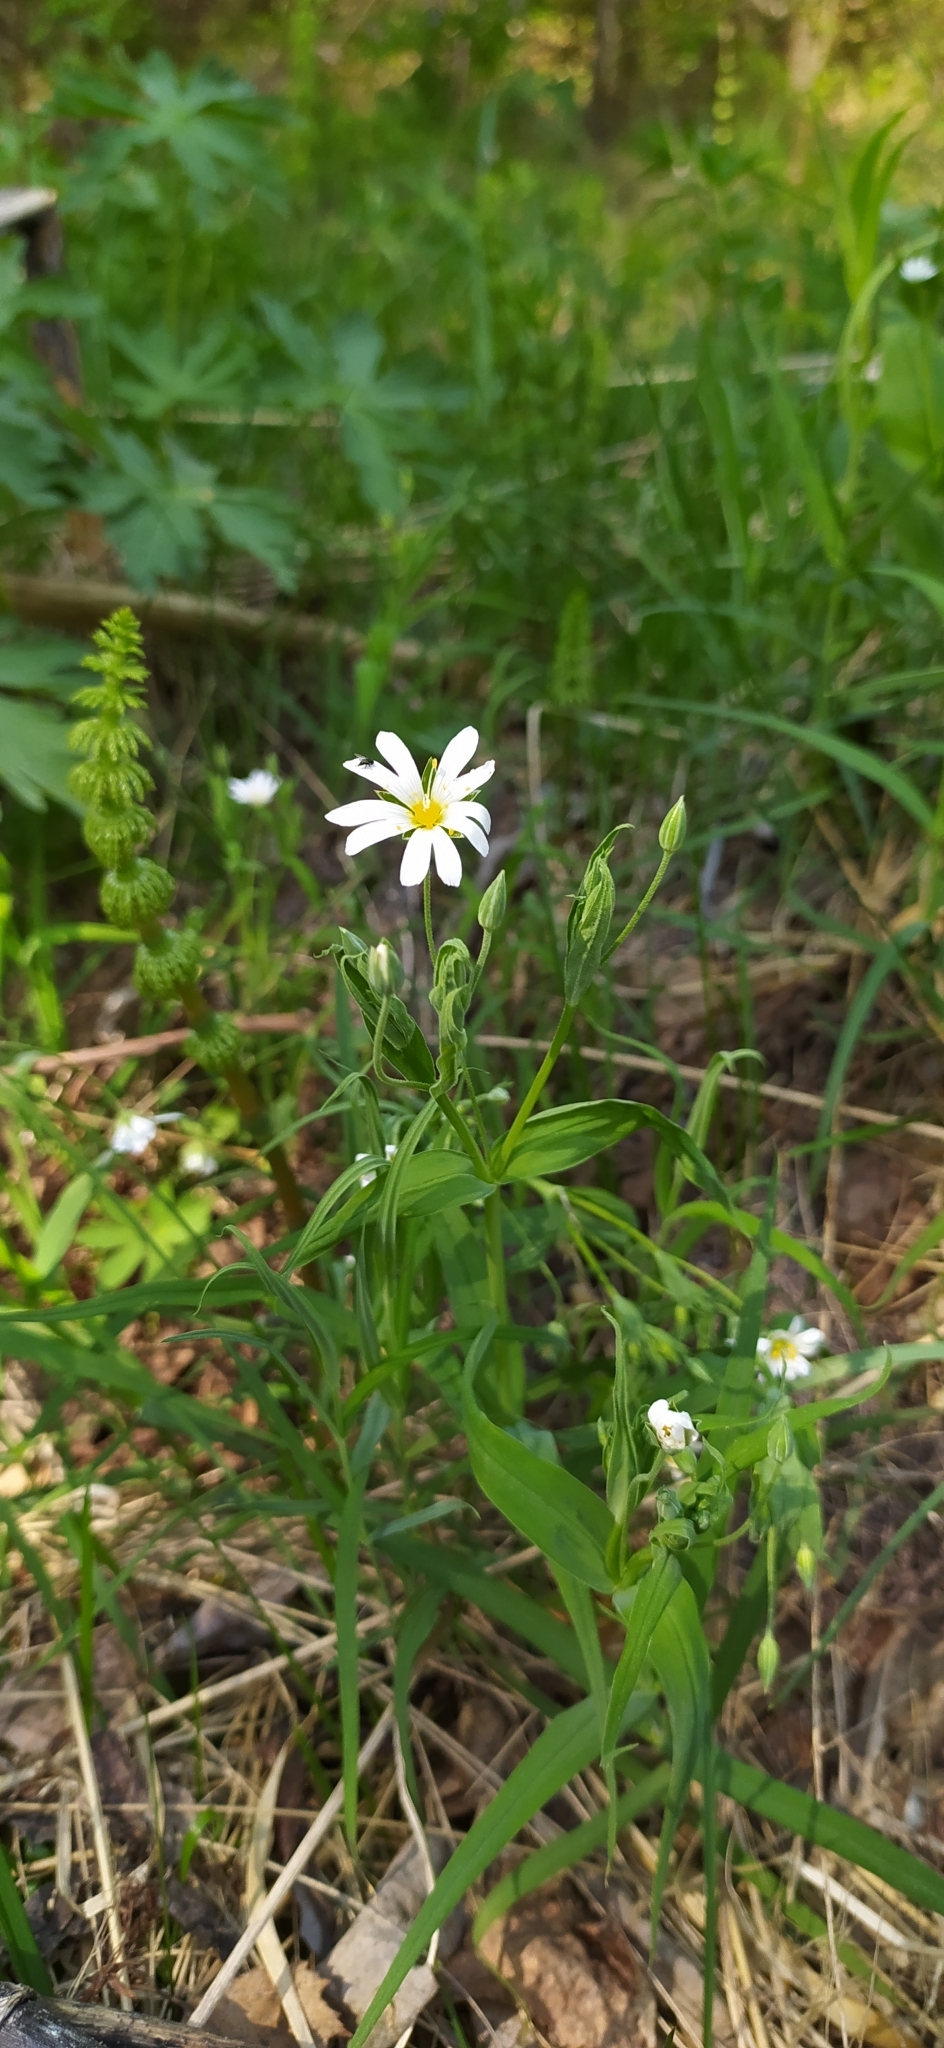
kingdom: Plantae
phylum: Tracheophyta
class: Magnoliopsida
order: Caryophyllales
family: Caryophyllaceae
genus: Rabelera
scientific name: Rabelera holostea
